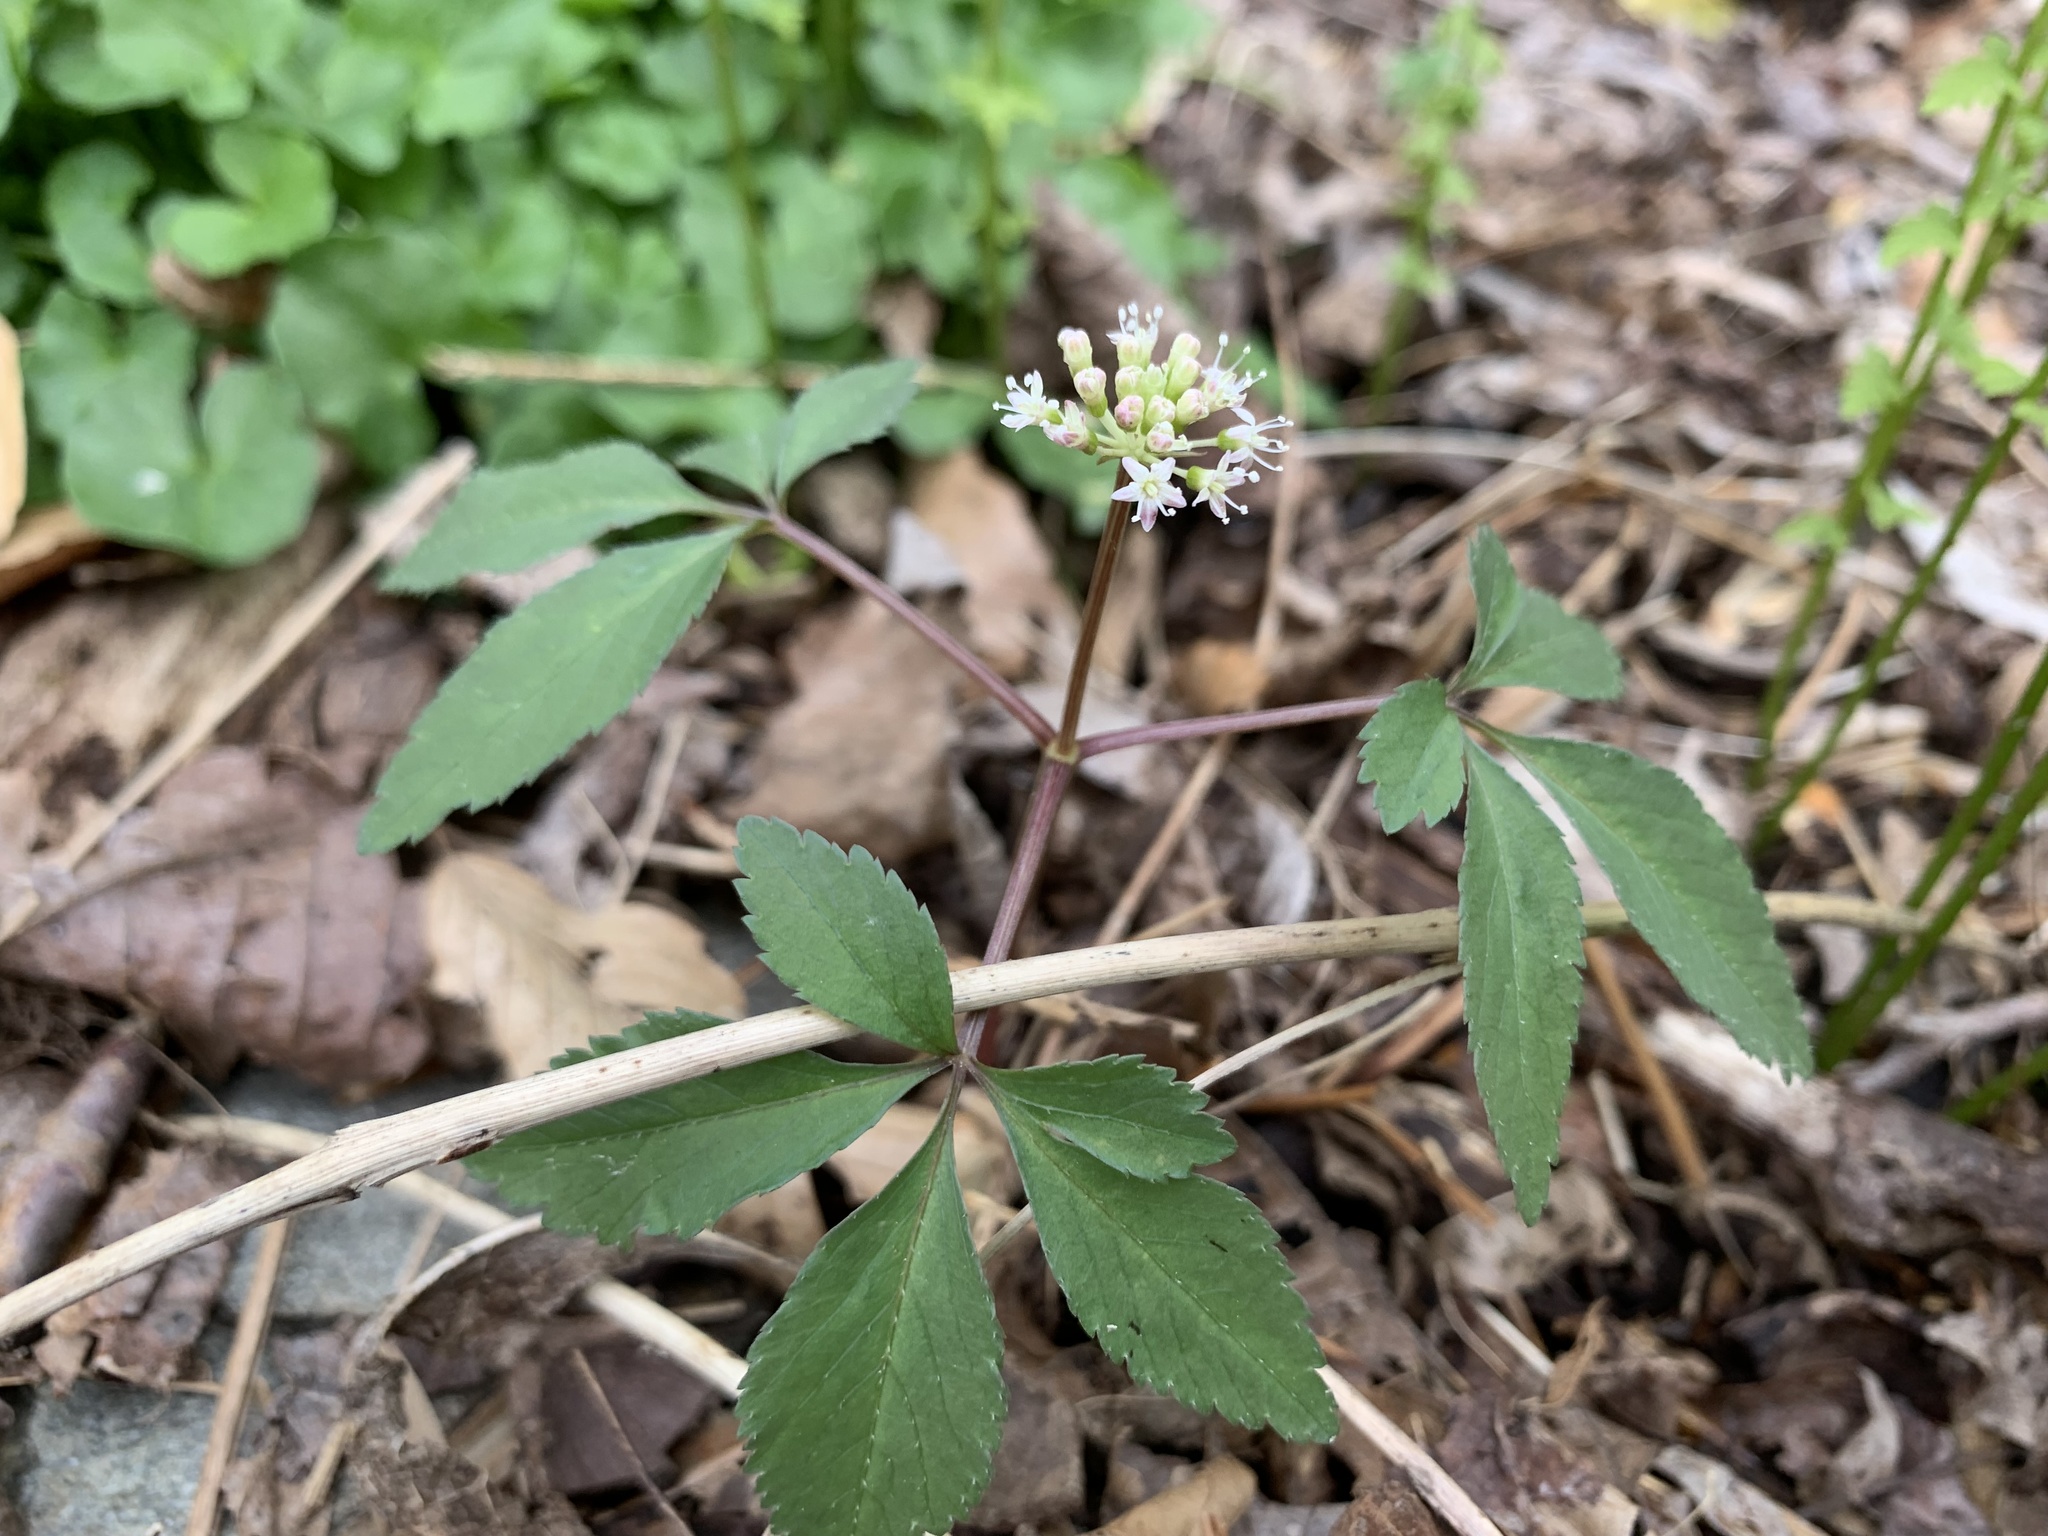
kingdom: Plantae
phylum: Tracheophyta
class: Magnoliopsida
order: Apiales
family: Araliaceae
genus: Panax
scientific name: Panax trifolius
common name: Dwarf ginseng
